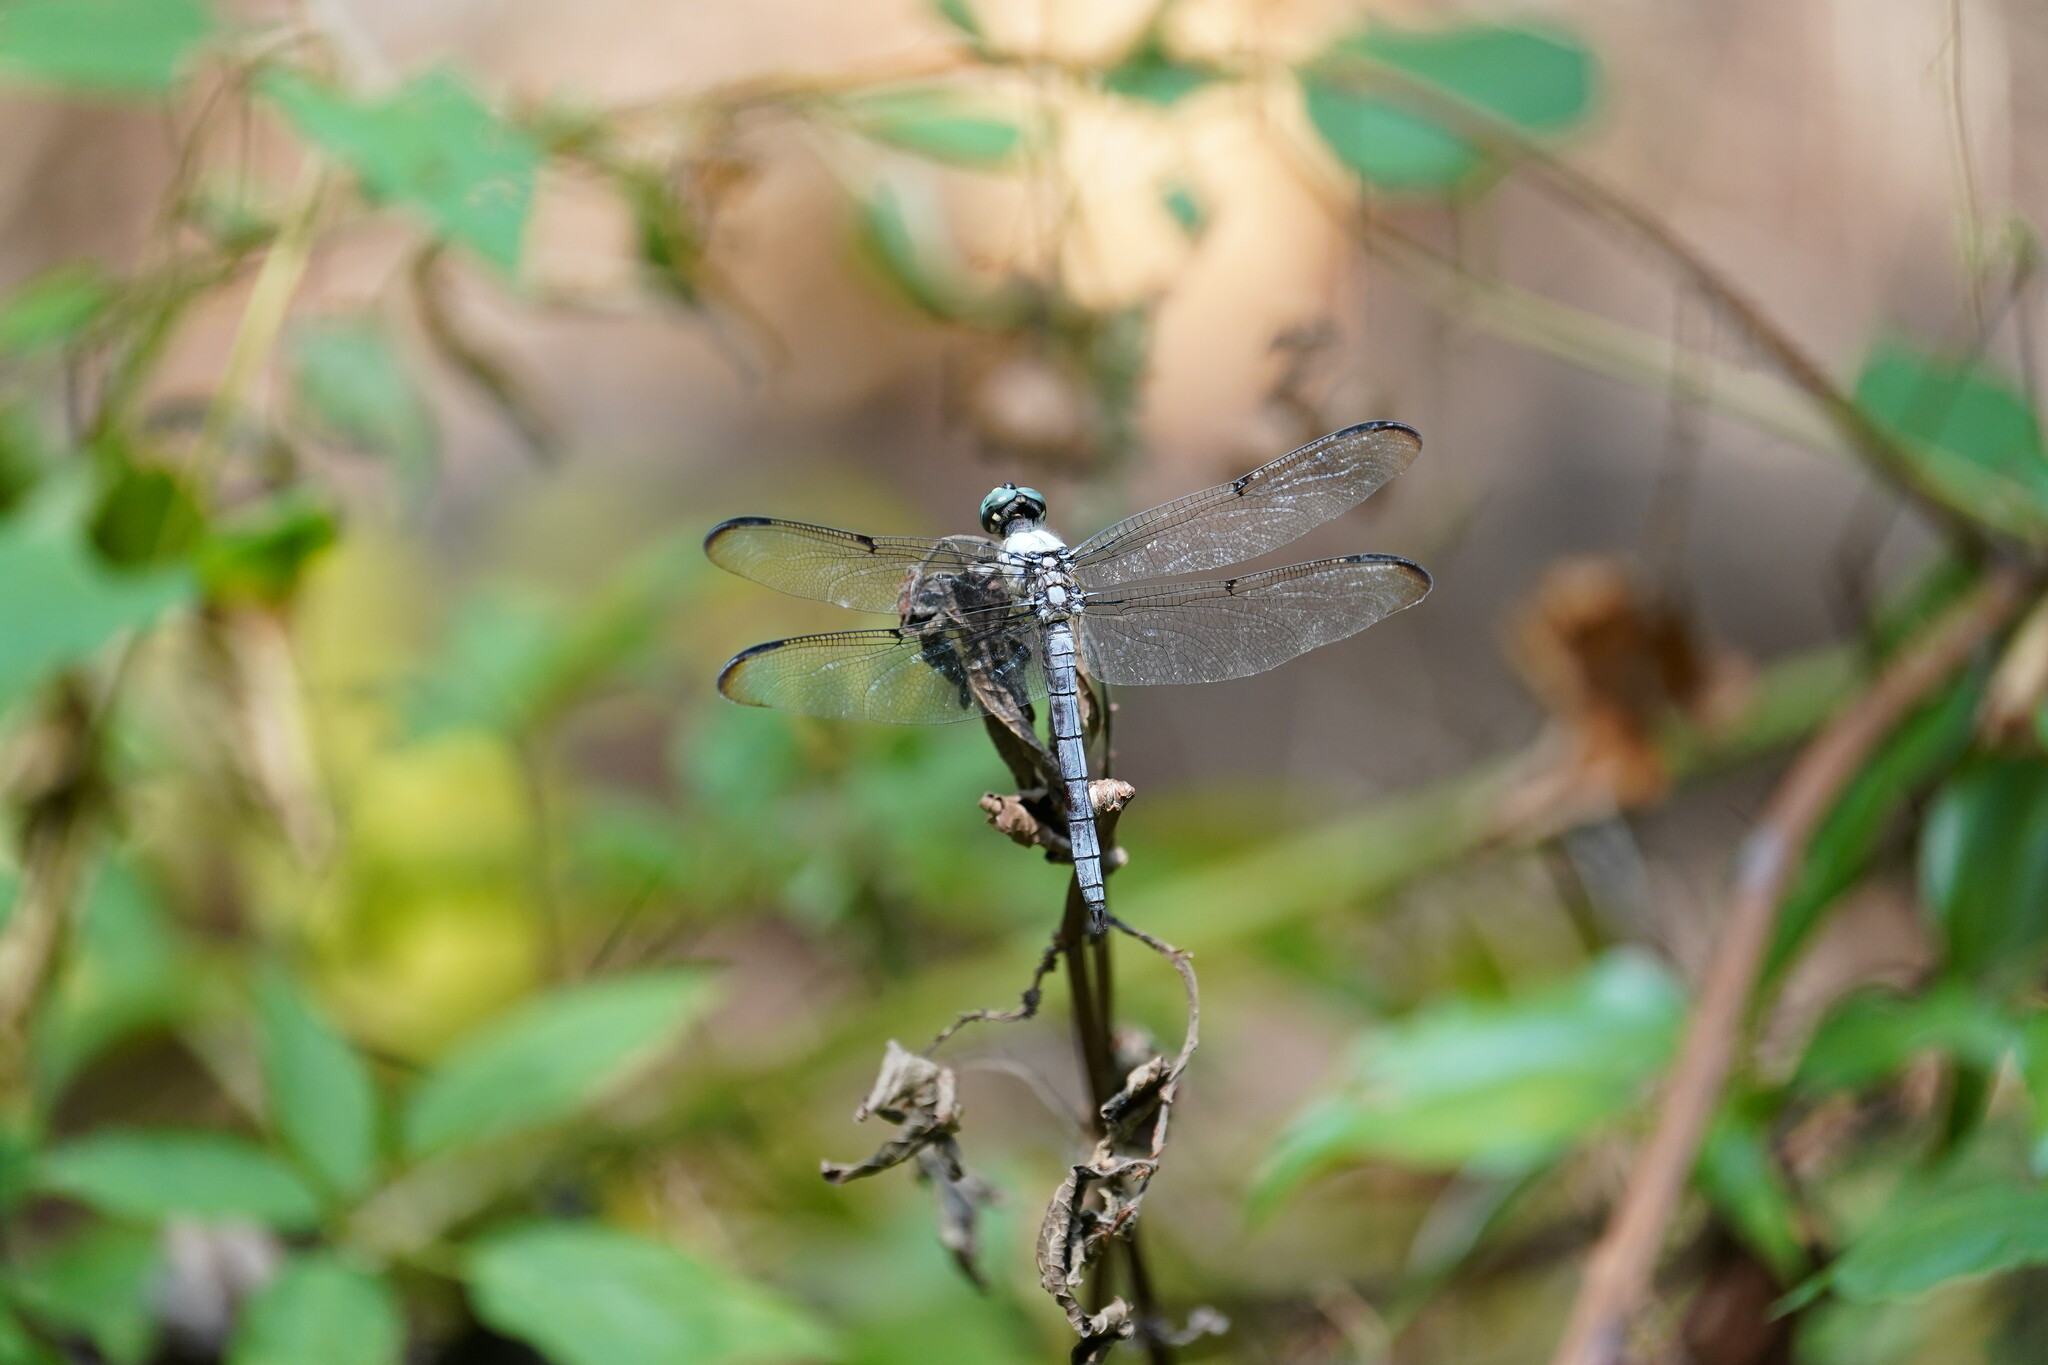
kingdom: Animalia
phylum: Arthropoda
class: Insecta
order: Odonata
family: Libellulidae
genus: Libellula
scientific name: Libellula vibrans
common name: Great blue skimmer
